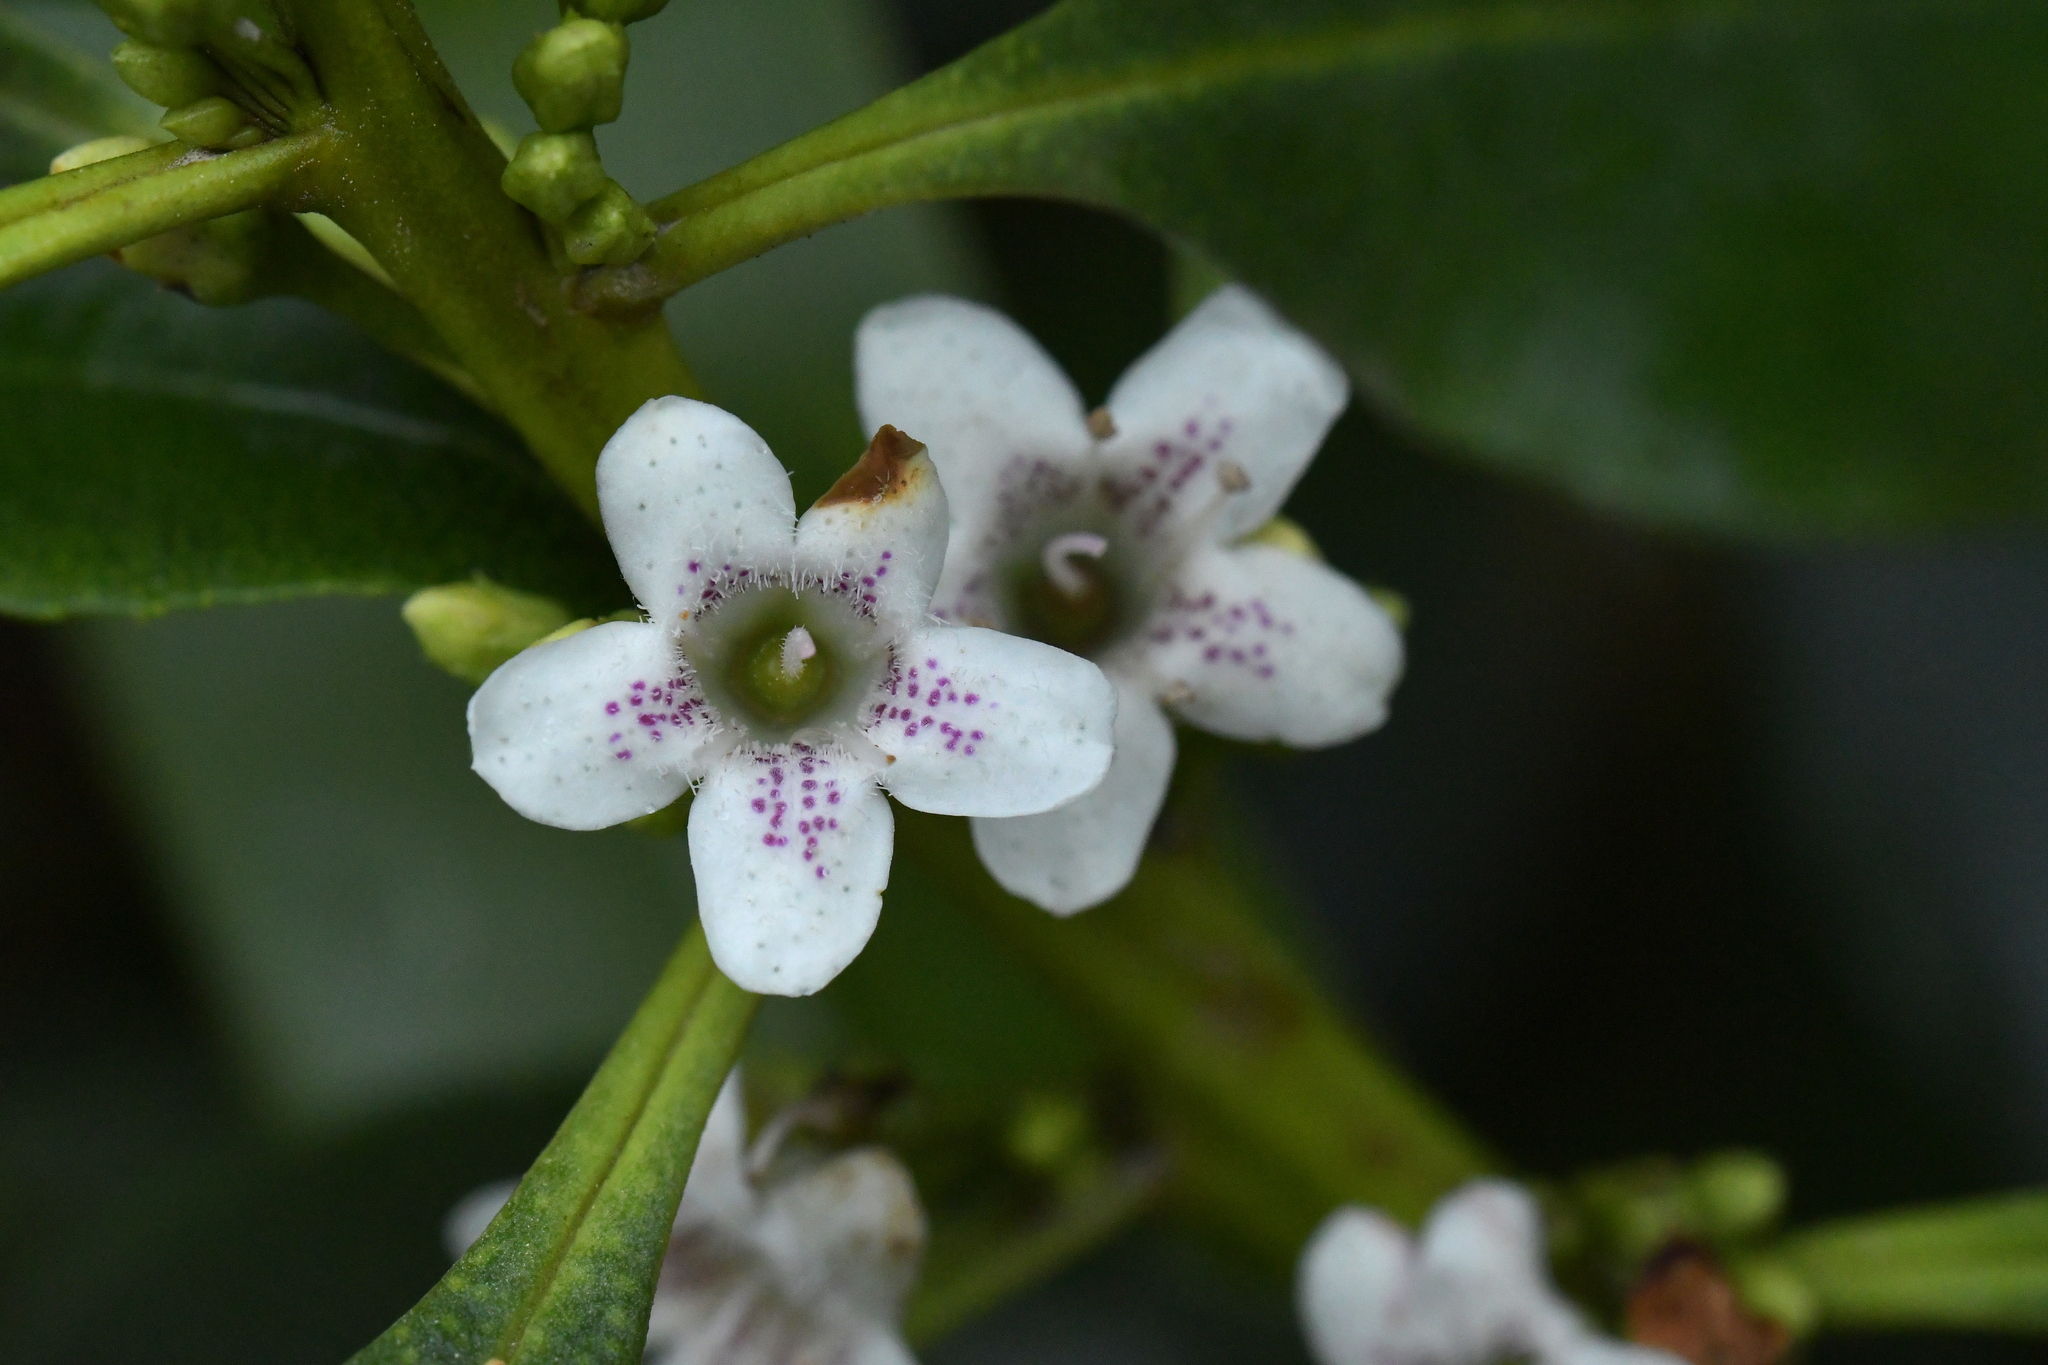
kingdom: Plantae
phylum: Tracheophyta
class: Magnoliopsida
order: Lamiales
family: Scrophulariaceae
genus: Myoporum
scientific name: Myoporum laetum
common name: Ngaio tree
